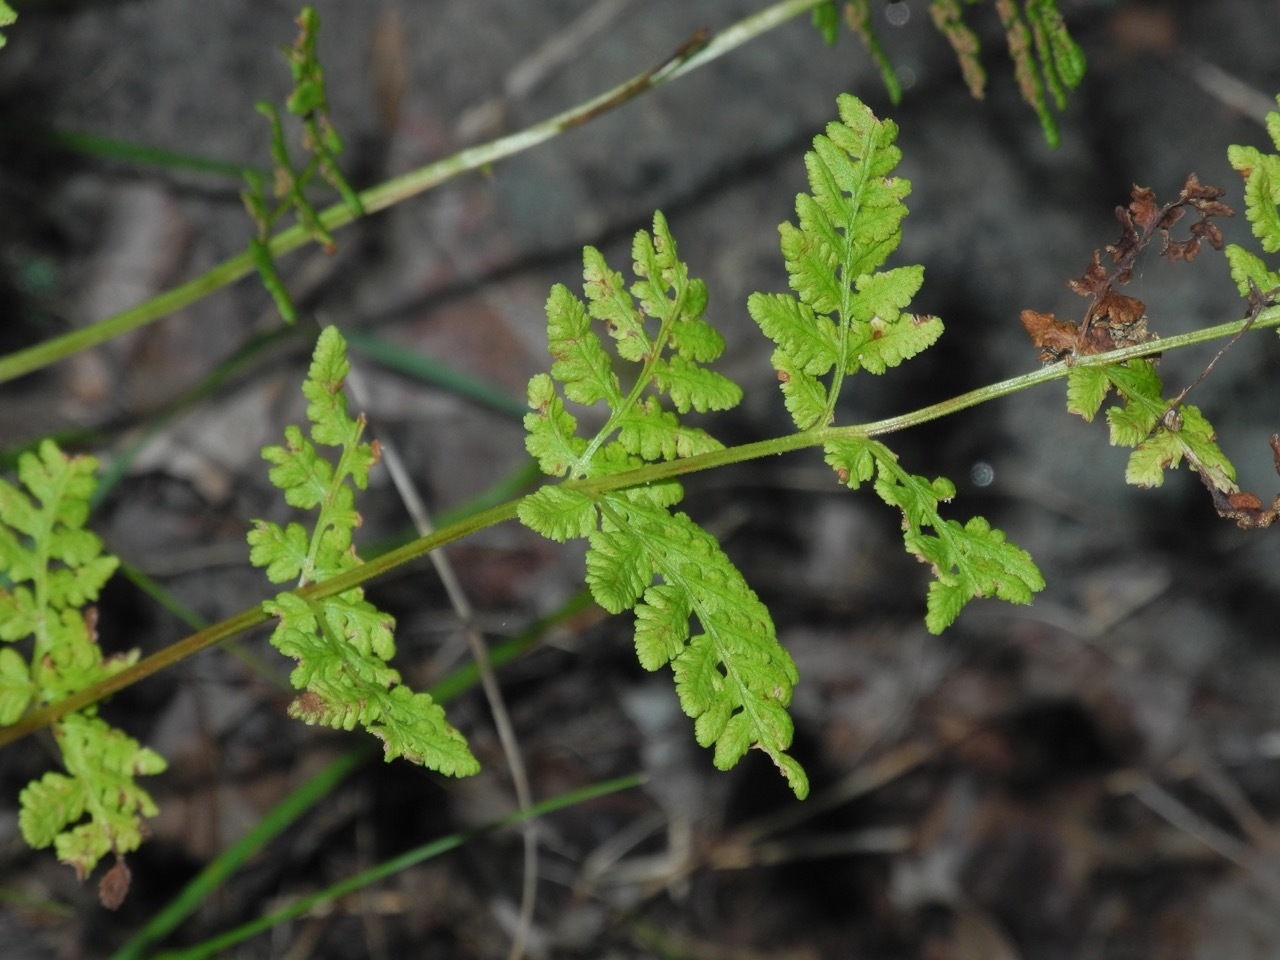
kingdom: Plantae
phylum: Tracheophyta
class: Polypodiopsida
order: Polypodiales
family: Woodsiaceae
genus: Physematium
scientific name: Physematium obtusum
